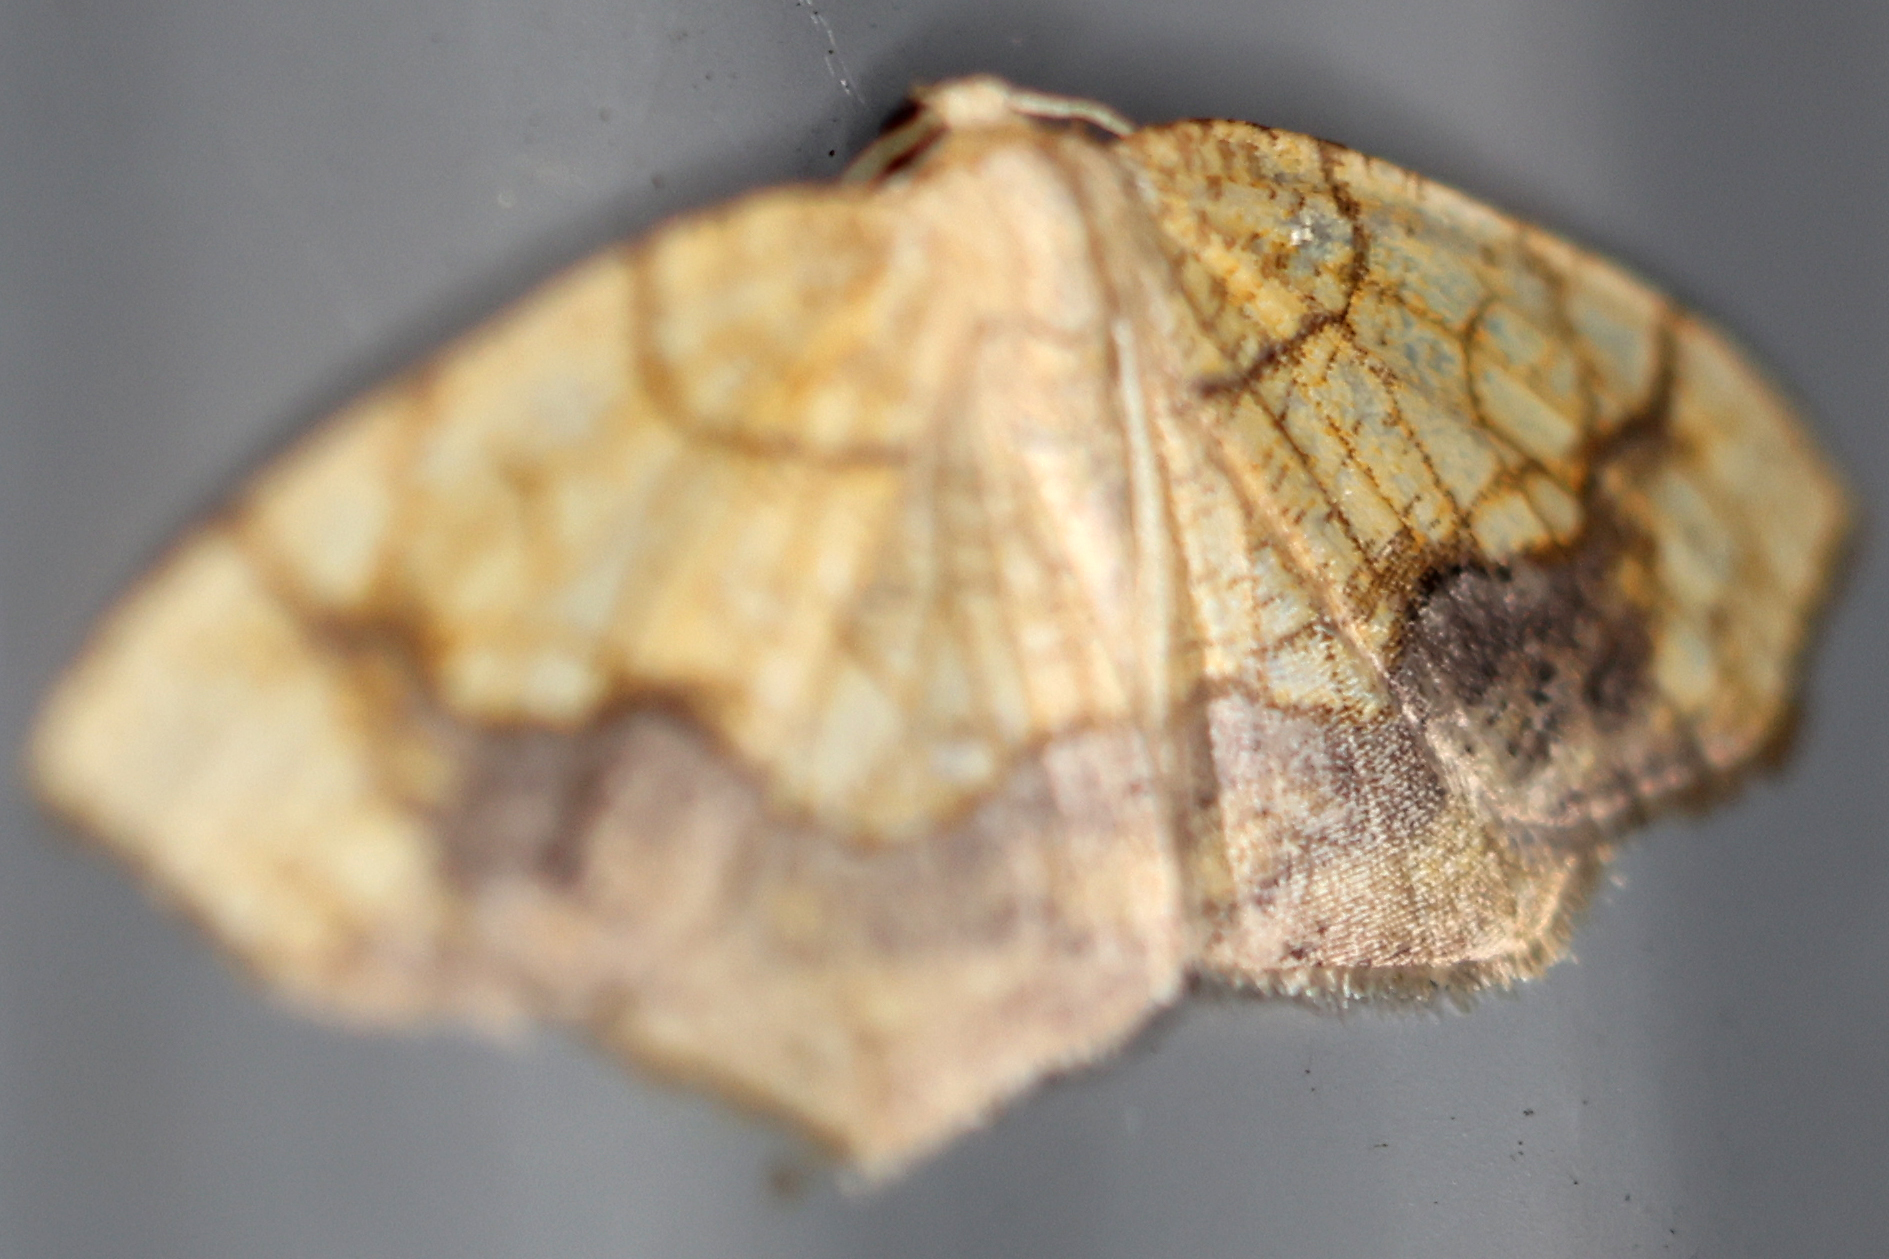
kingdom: Animalia
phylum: Arthropoda
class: Insecta
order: Lepidoptera
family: Geometridae
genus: Nematocampa
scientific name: Nematocampa resistaria
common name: Horned spanworm moth
